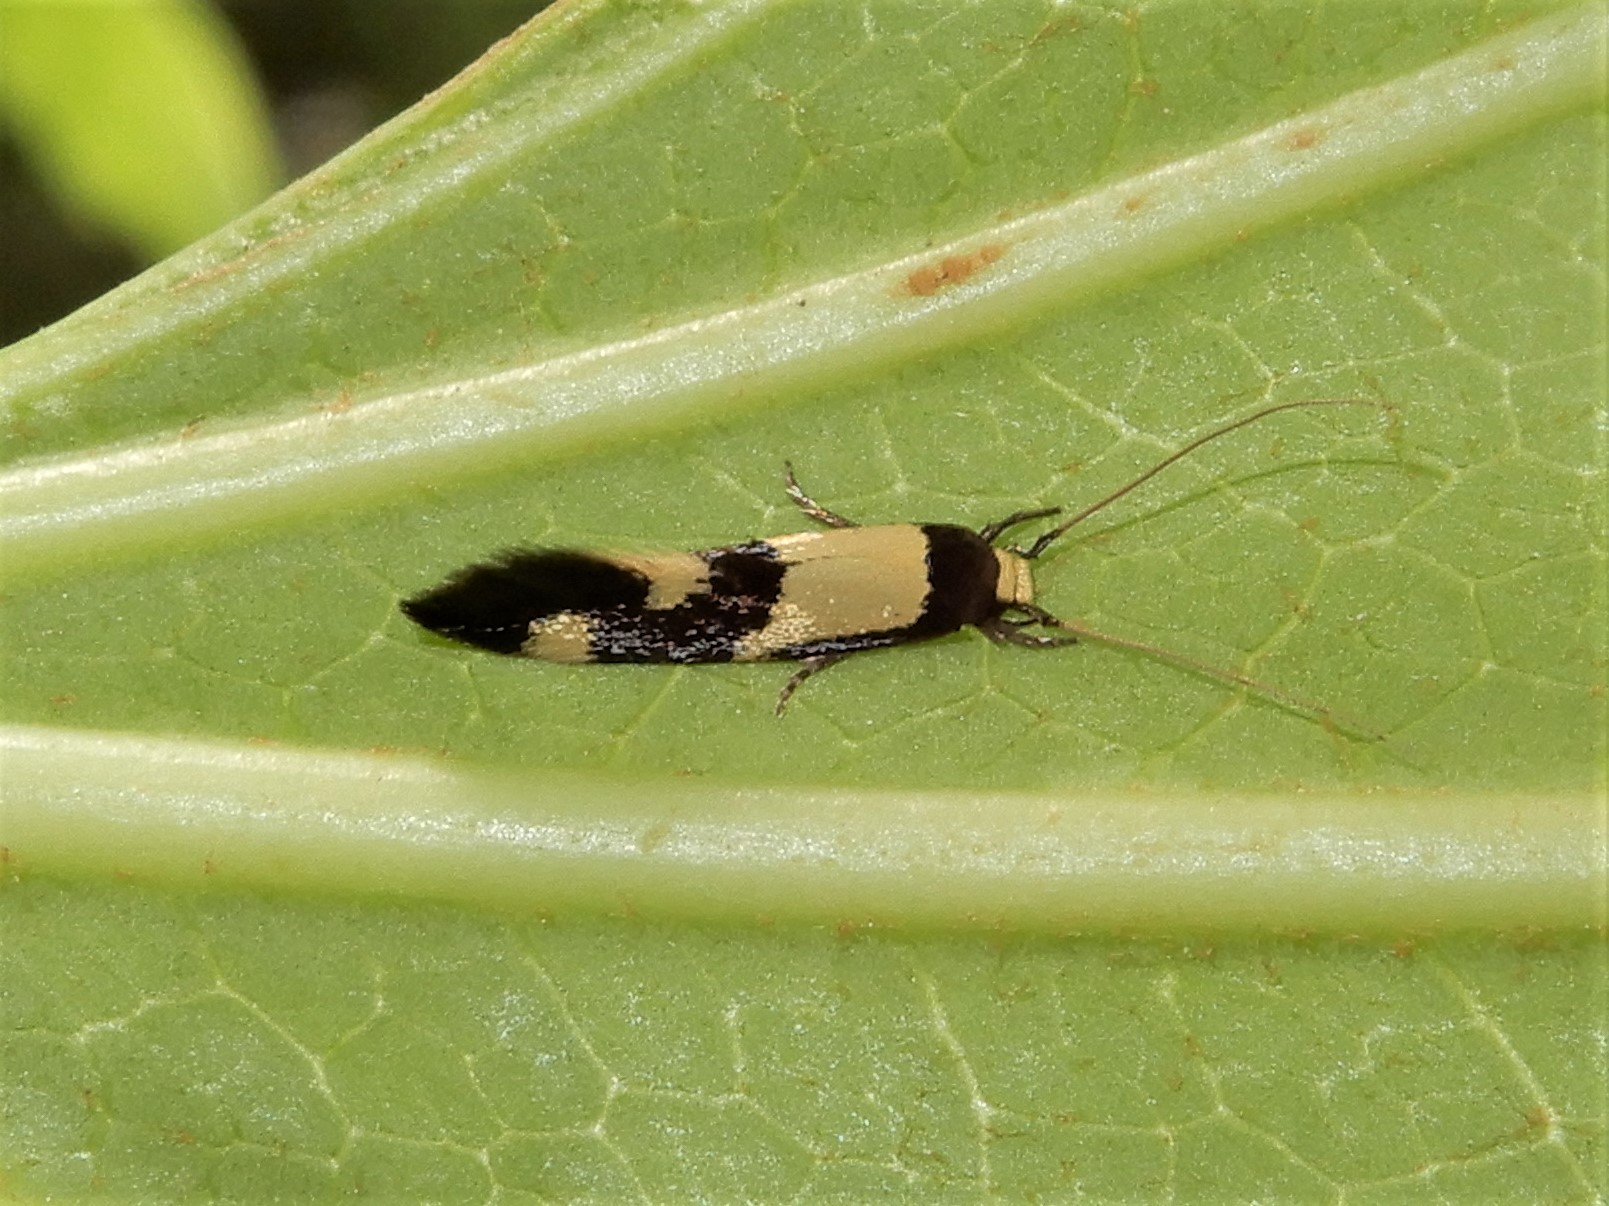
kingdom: Animalia
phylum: Arthropoda
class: Insecta
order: Lepidoptera
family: Tineidae
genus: Opogona
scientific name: Opogona comptella
